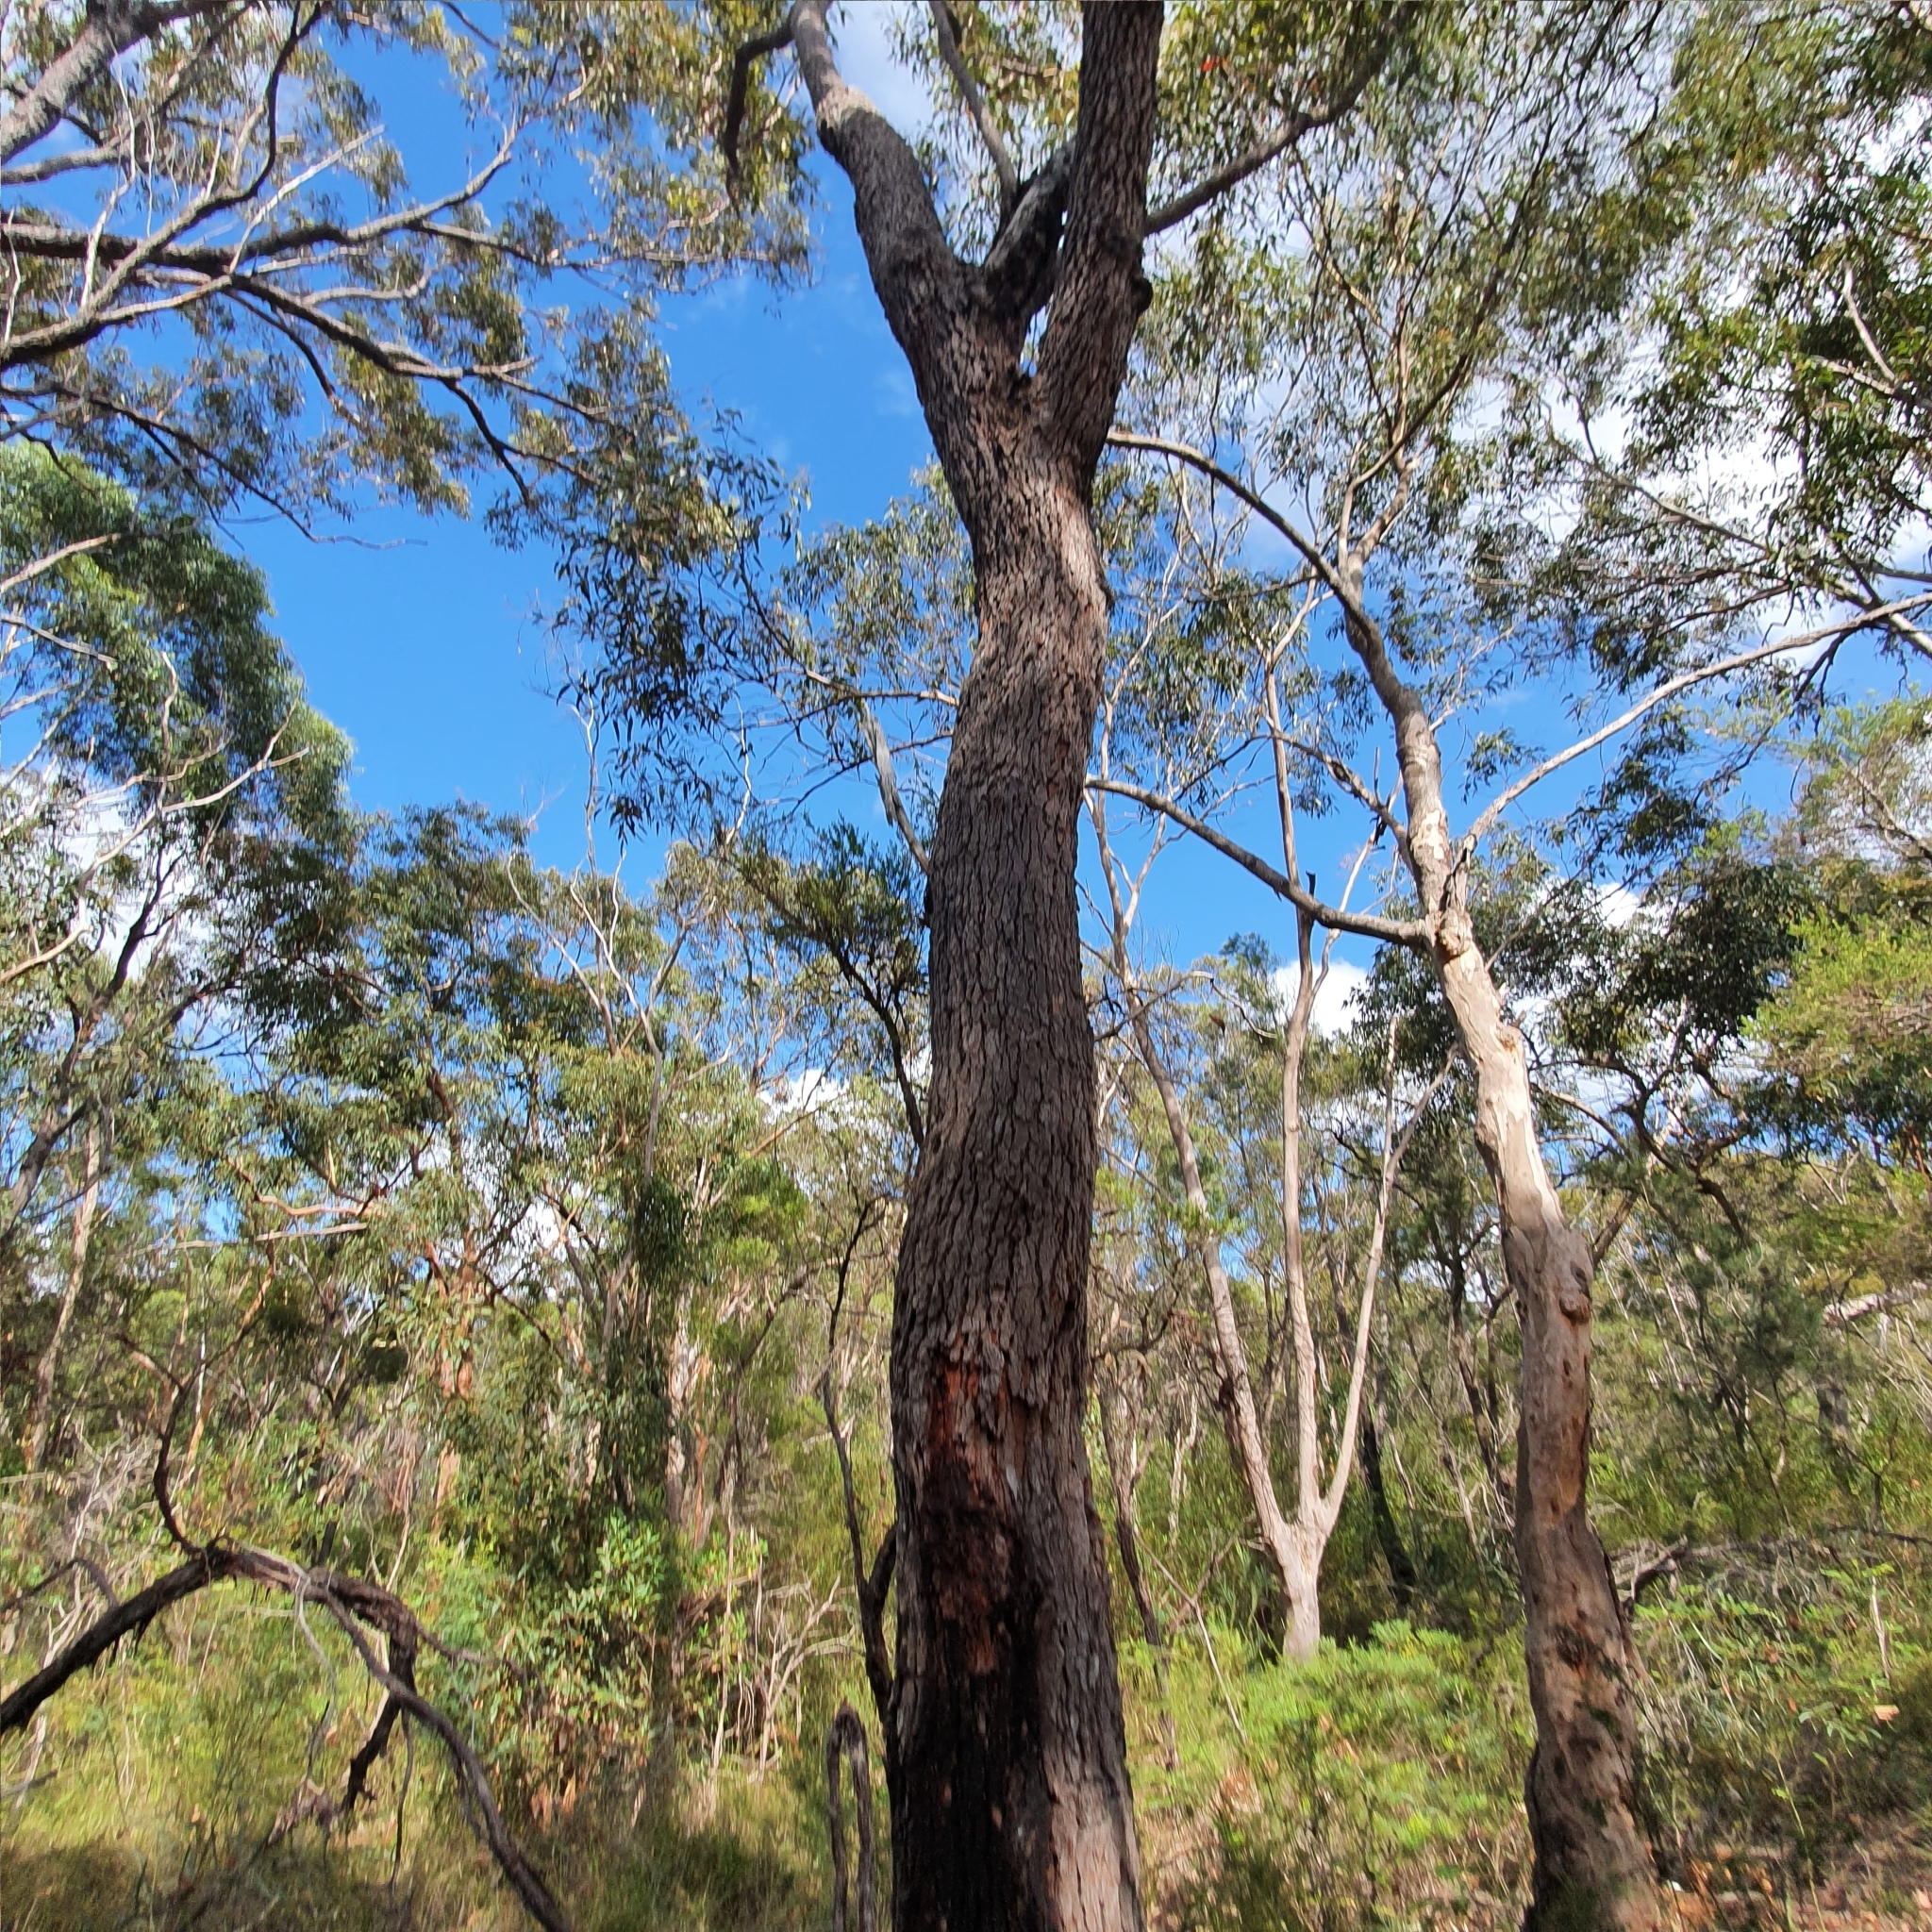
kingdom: Plantae
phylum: Tracheophyta
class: Magnoliopsida
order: Myrtales
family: Myrtaceae
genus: Corymbia
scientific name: Corymbia gummifera
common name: Red bloodwood
